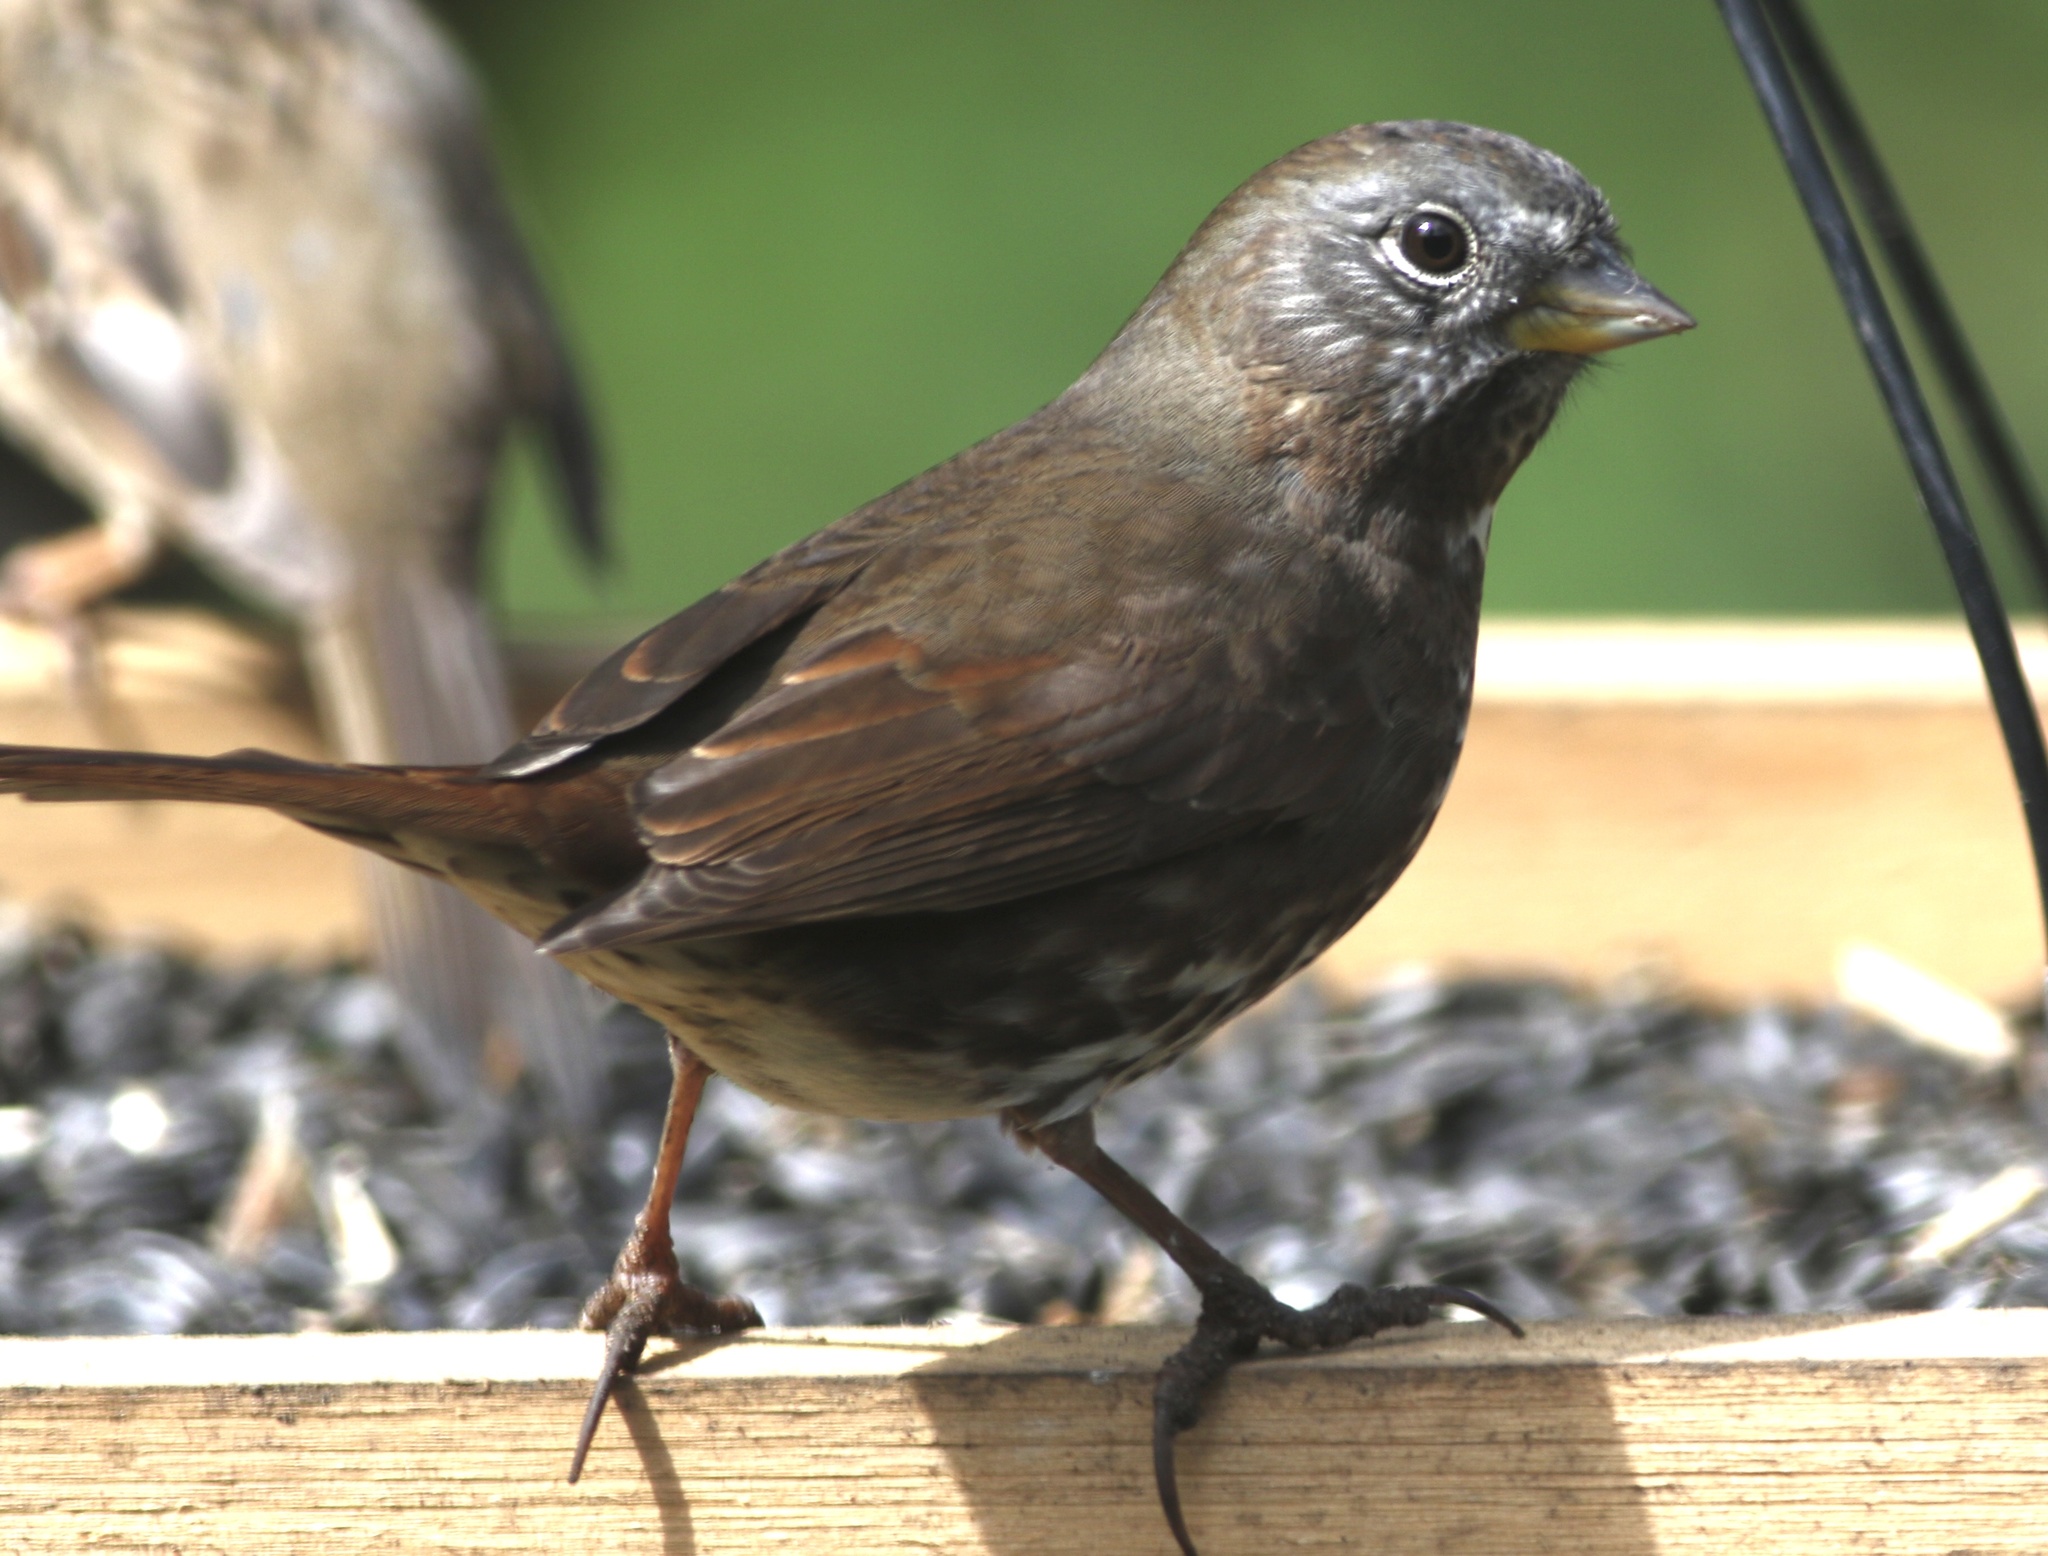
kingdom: Animalia
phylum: Chordata
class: Aves
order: Passeriformes
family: Passerellidae
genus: Passerella
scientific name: Passerella iliaca
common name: Fox sparrow
